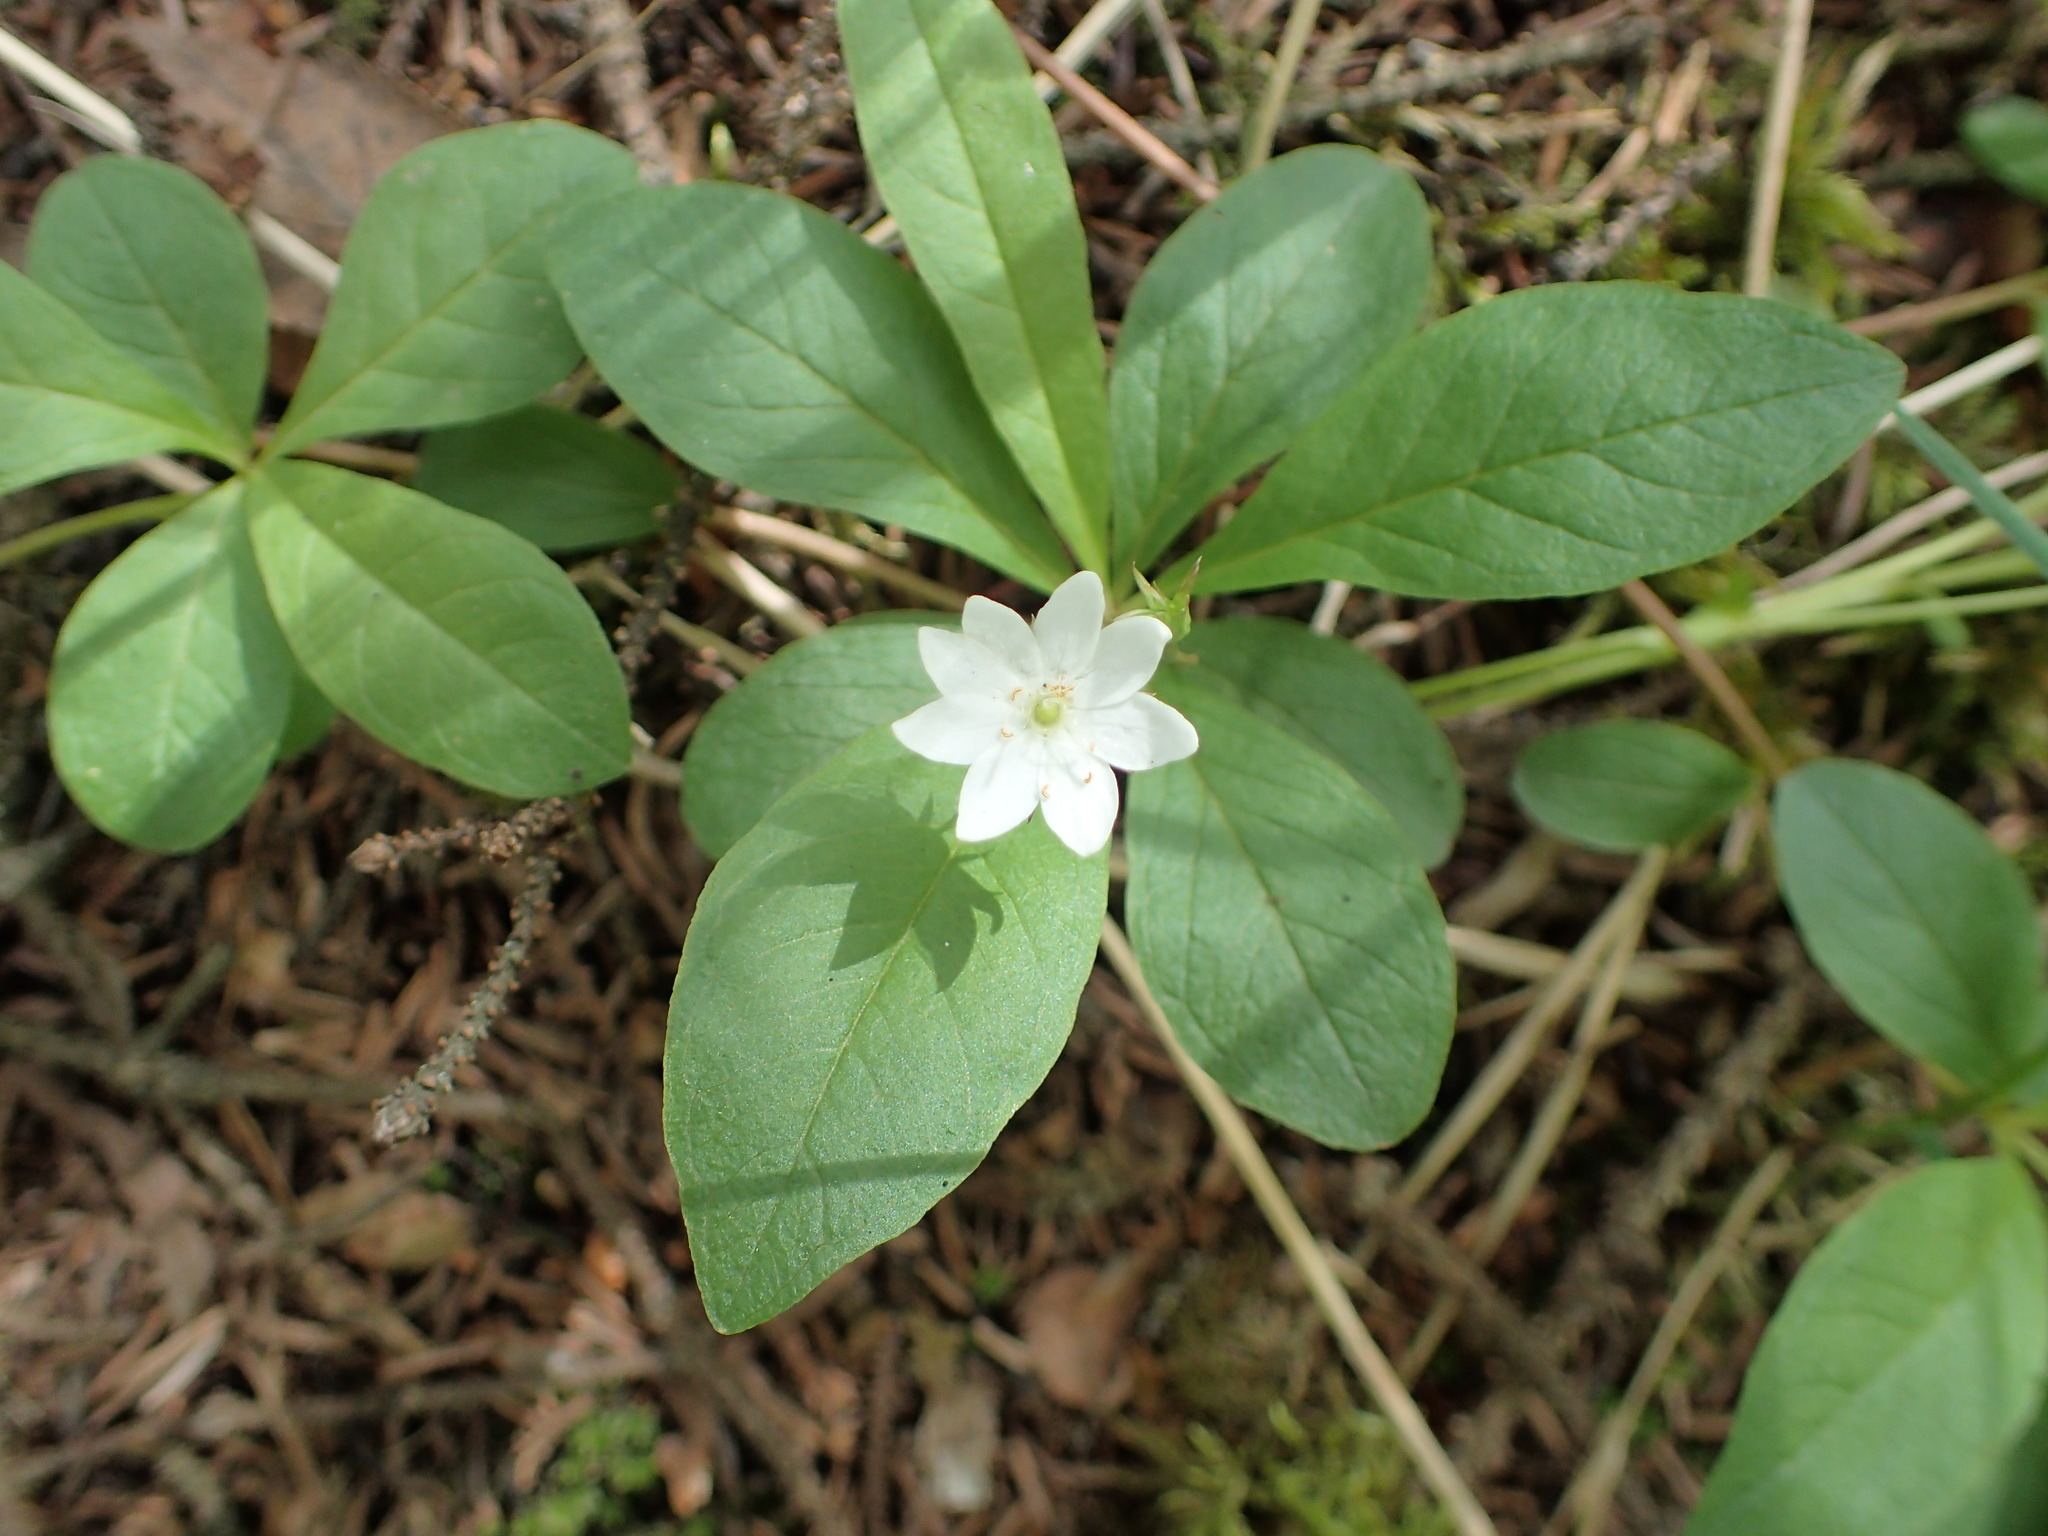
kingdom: Plantae
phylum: Tracheophyta
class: Magnoliopsida
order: Ericales
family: Primulaceae
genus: Lysimachia
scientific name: Lysimachia europaea
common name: Arctic starflower
